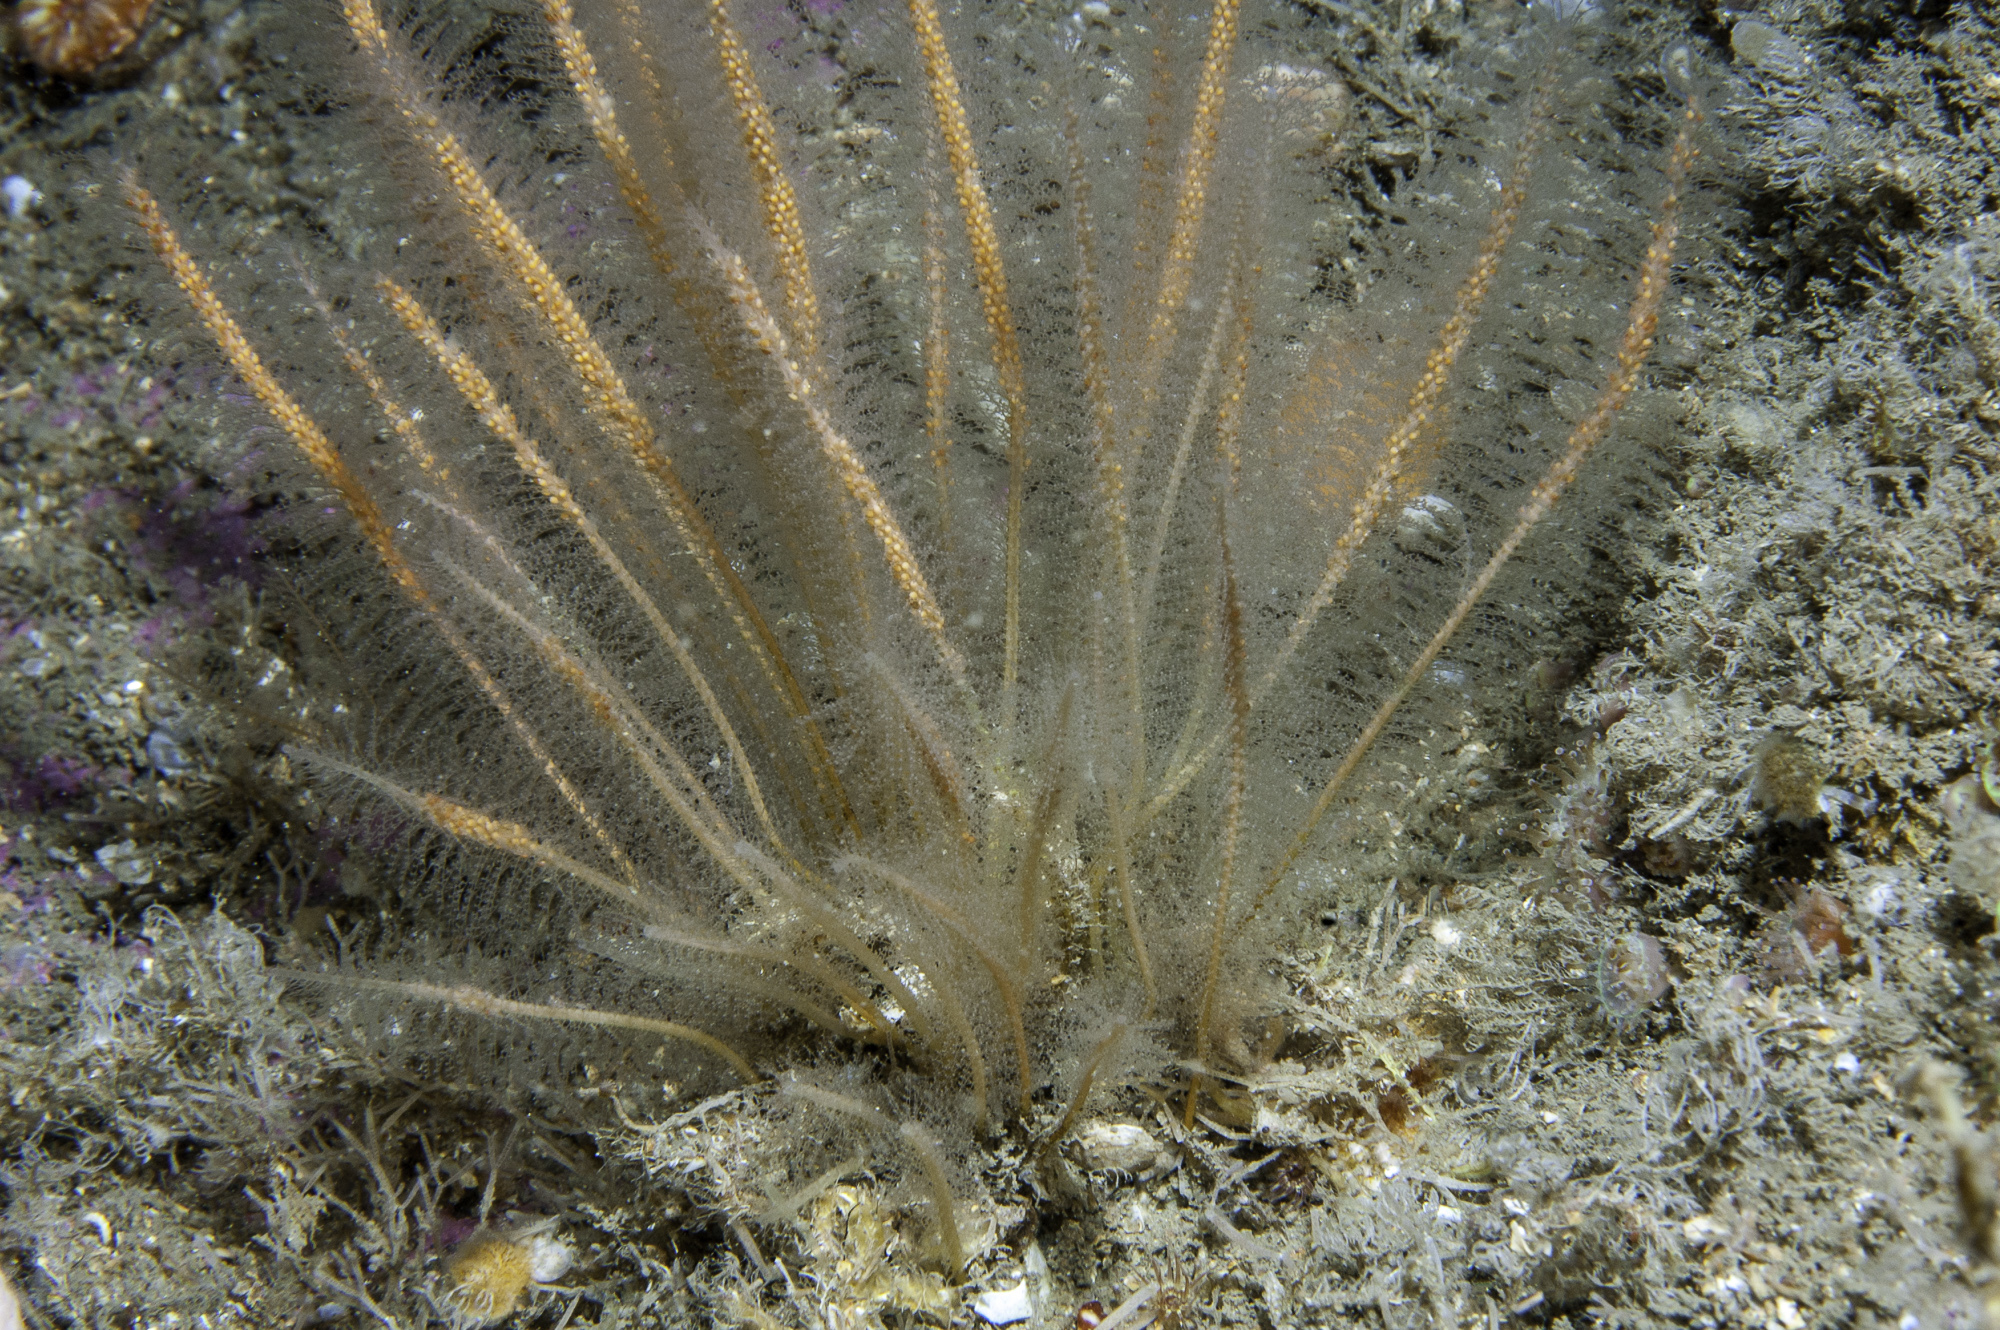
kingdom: Animalia
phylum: Cnidaria
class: Hydrozoa
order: Leptothecata
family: Plumulariidae
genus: Nemertesia
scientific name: Nemertesia antennina
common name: Sea beard
